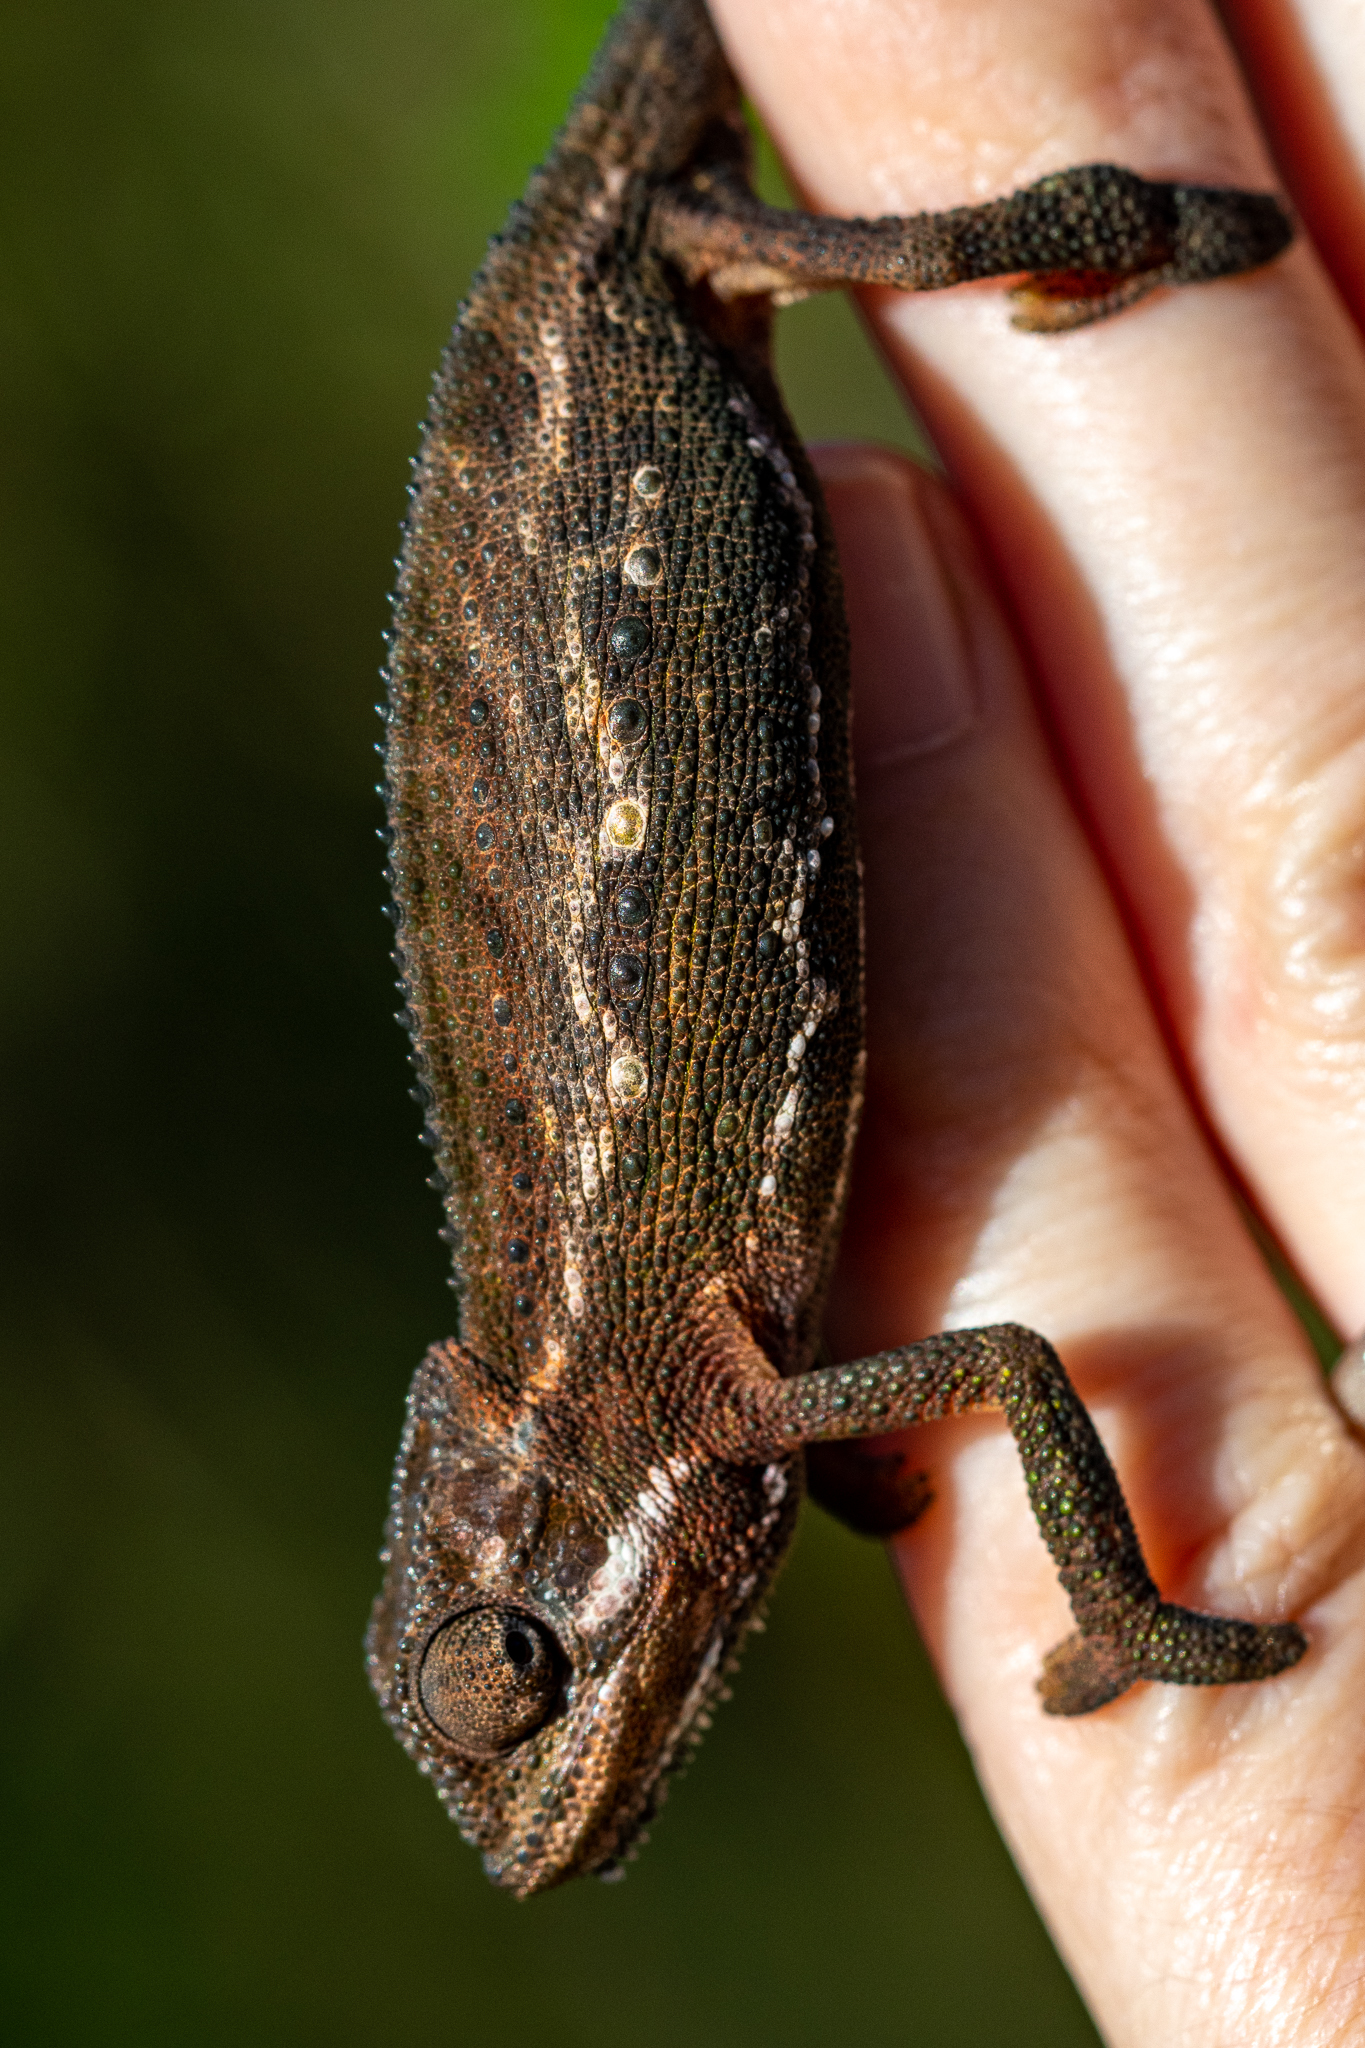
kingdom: Animalia
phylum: Chordata
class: Squamata
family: Chamaeleonidae
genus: Bradypodion
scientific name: Bradypodion pumilum
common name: Cape dwarf chameleon
